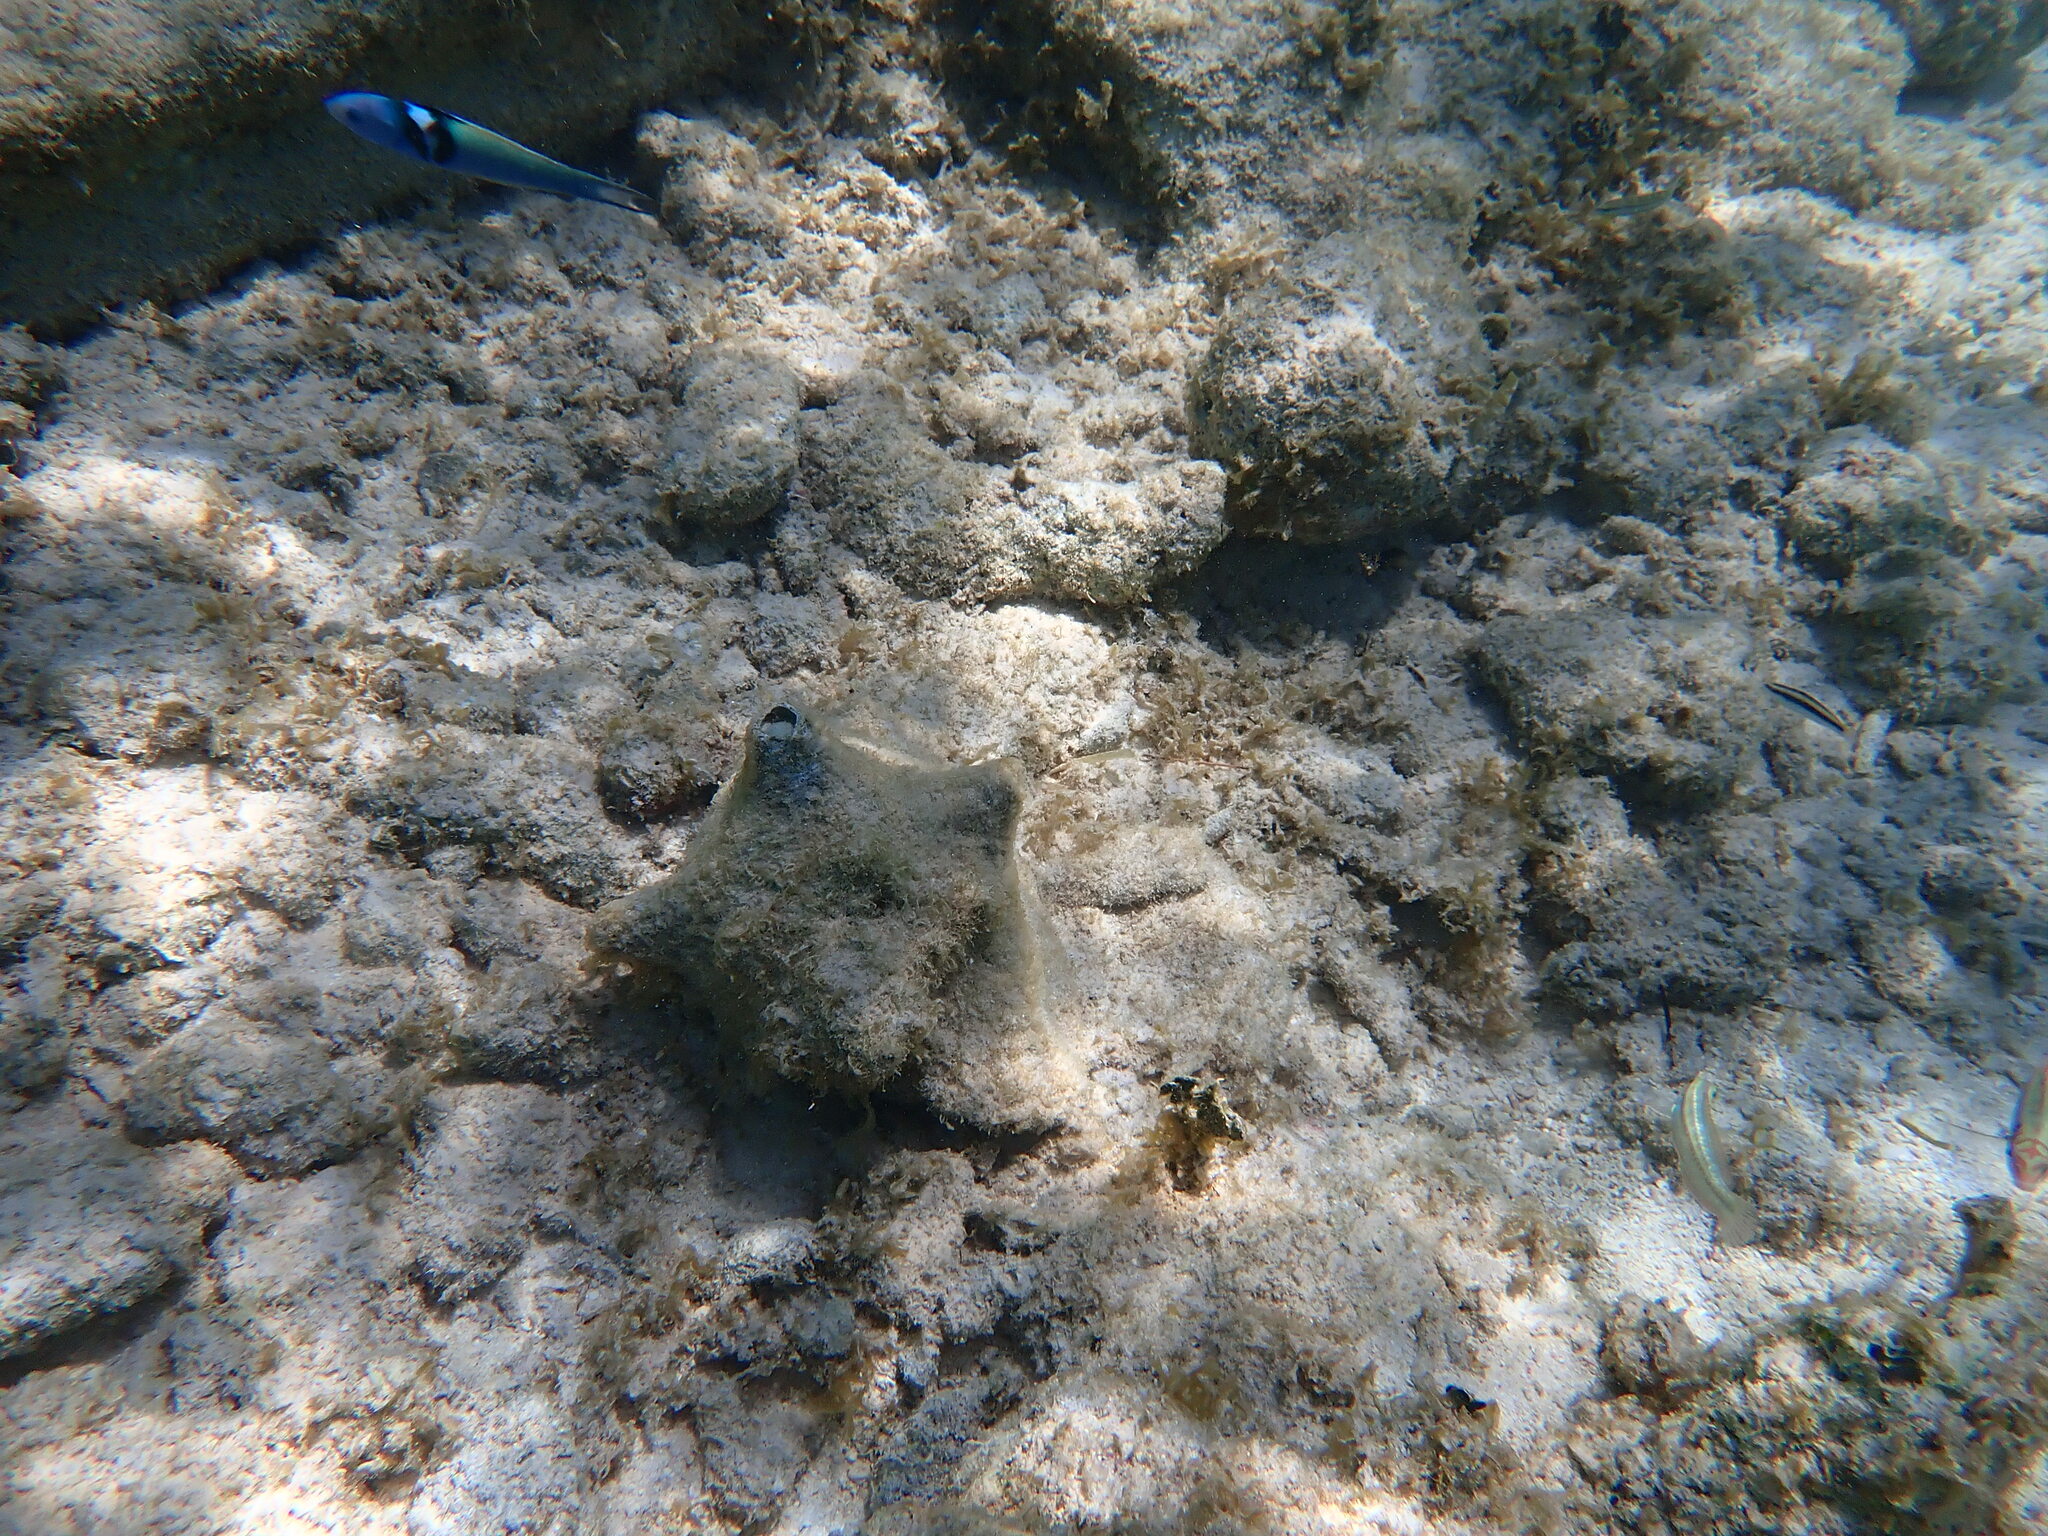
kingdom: Animalia
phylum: Chordata
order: Perciformes
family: Labridae
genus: Thalassoma
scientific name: Thalassoma bifasciatum
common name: Bluehead wrasse
